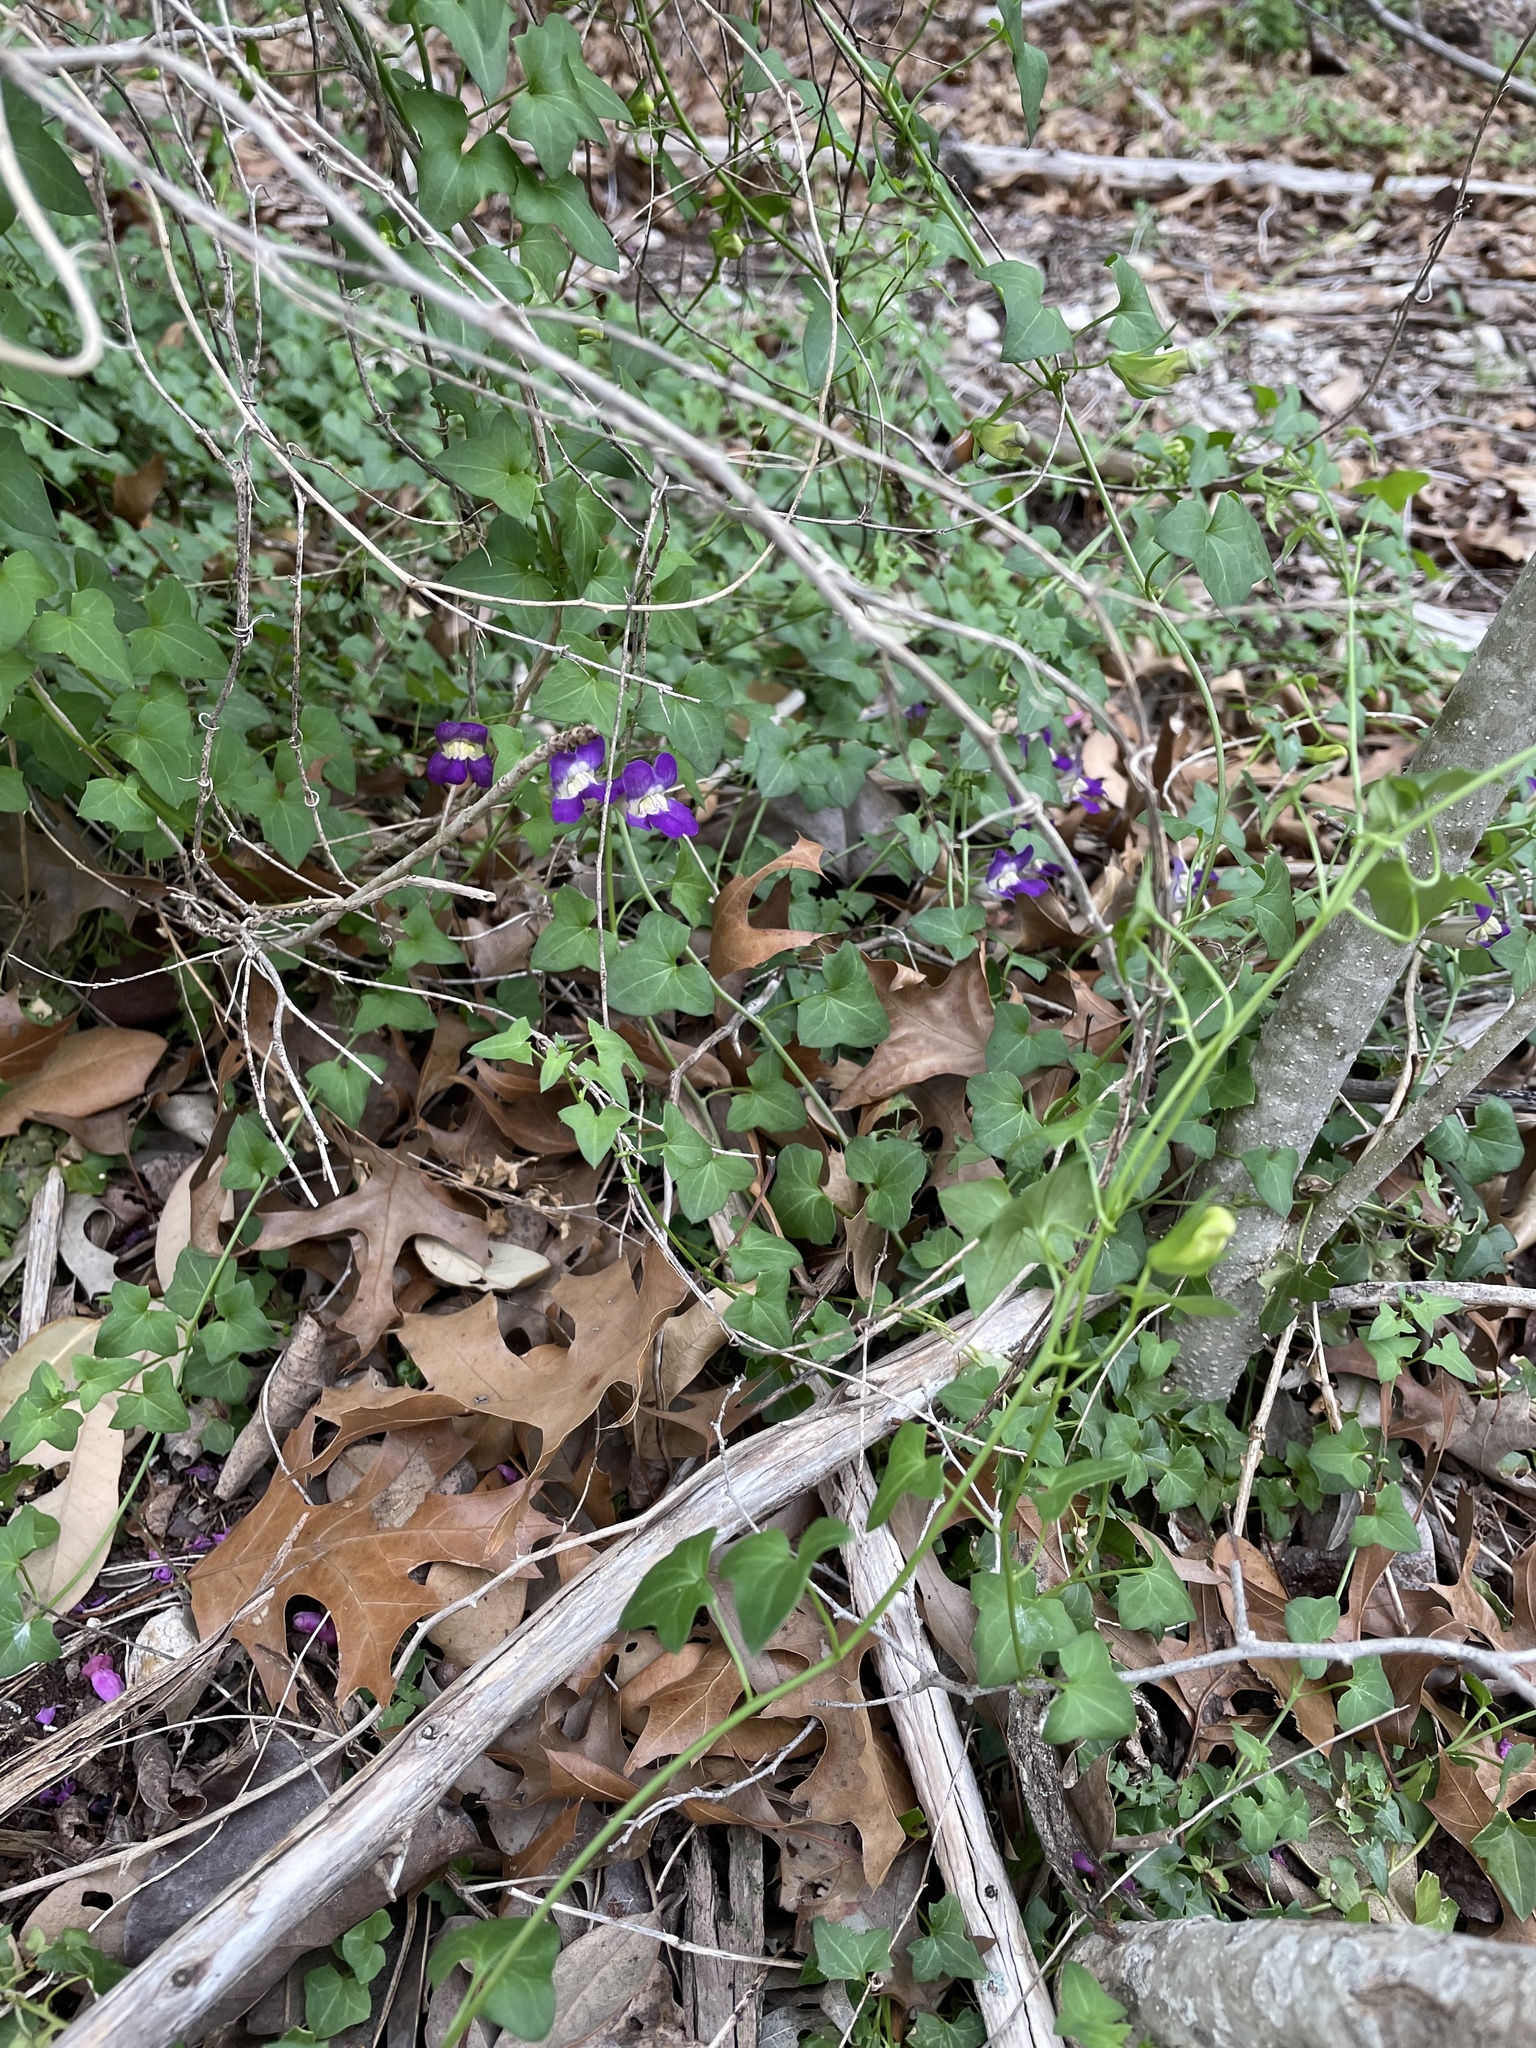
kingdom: Plantae
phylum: Tracheophyta
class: Magnoliopsida
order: Lamiales
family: Plantaginaceae
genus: Maurandella
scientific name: Maurandella antirrhiniflora
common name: Violet twining-snapdragon
